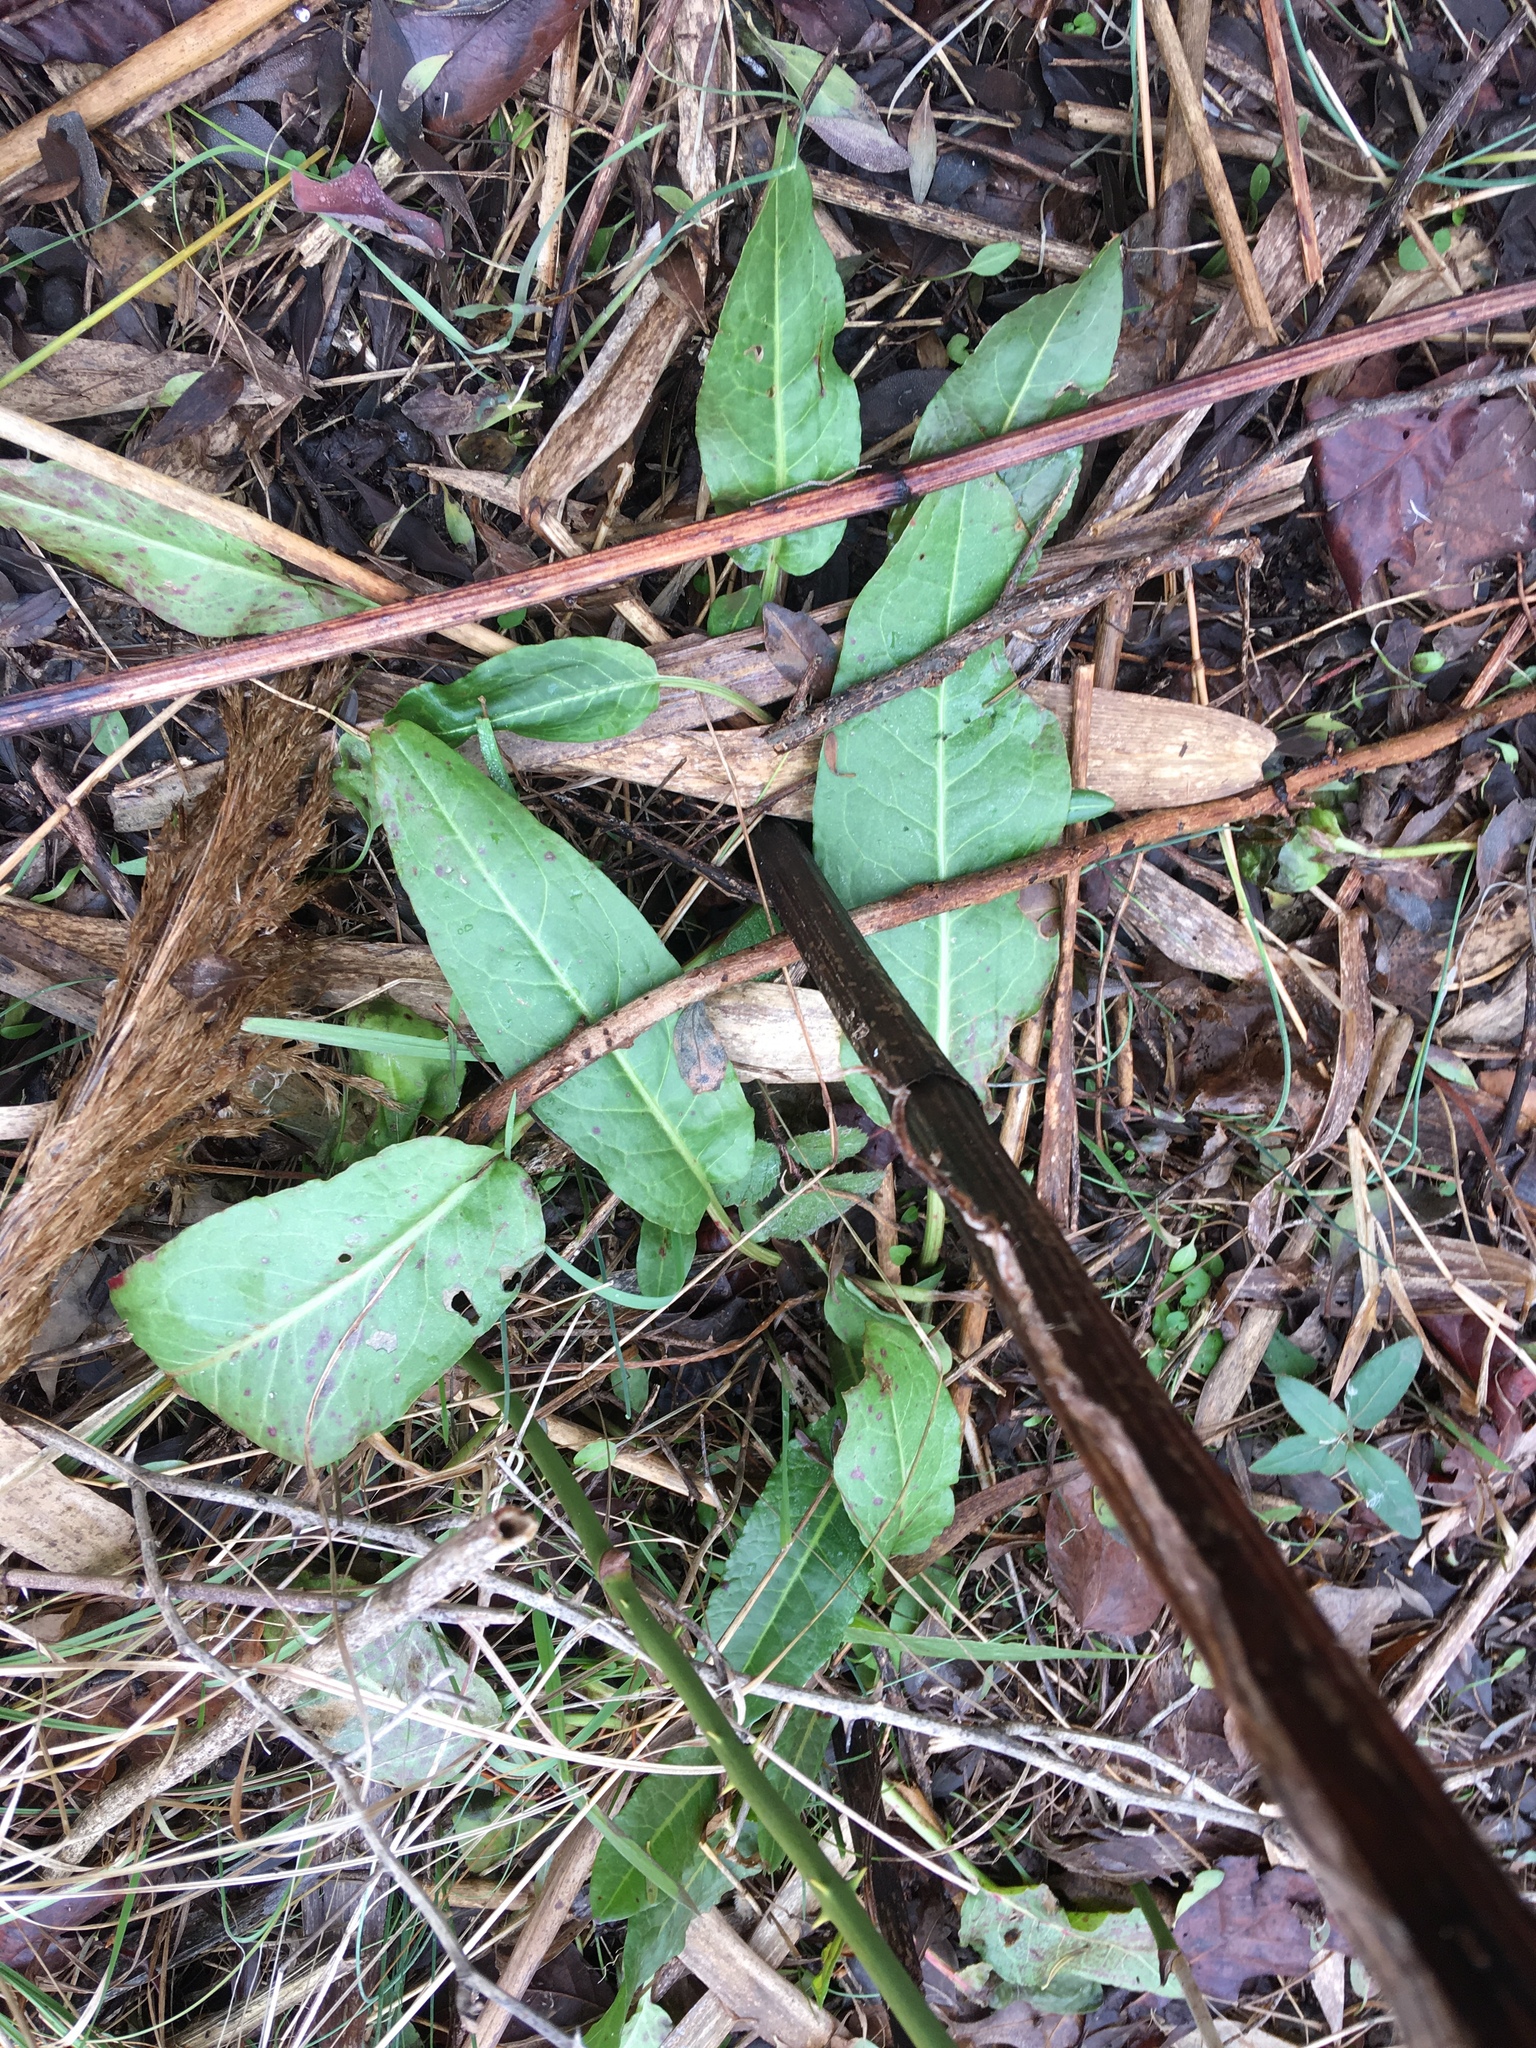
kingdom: Plantae
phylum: Tracheophyta
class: Magnoliopsida
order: Caryophyllales
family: Polygonaceae
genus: Rumex
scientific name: Rumex obtusifolius
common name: Bitter dock
